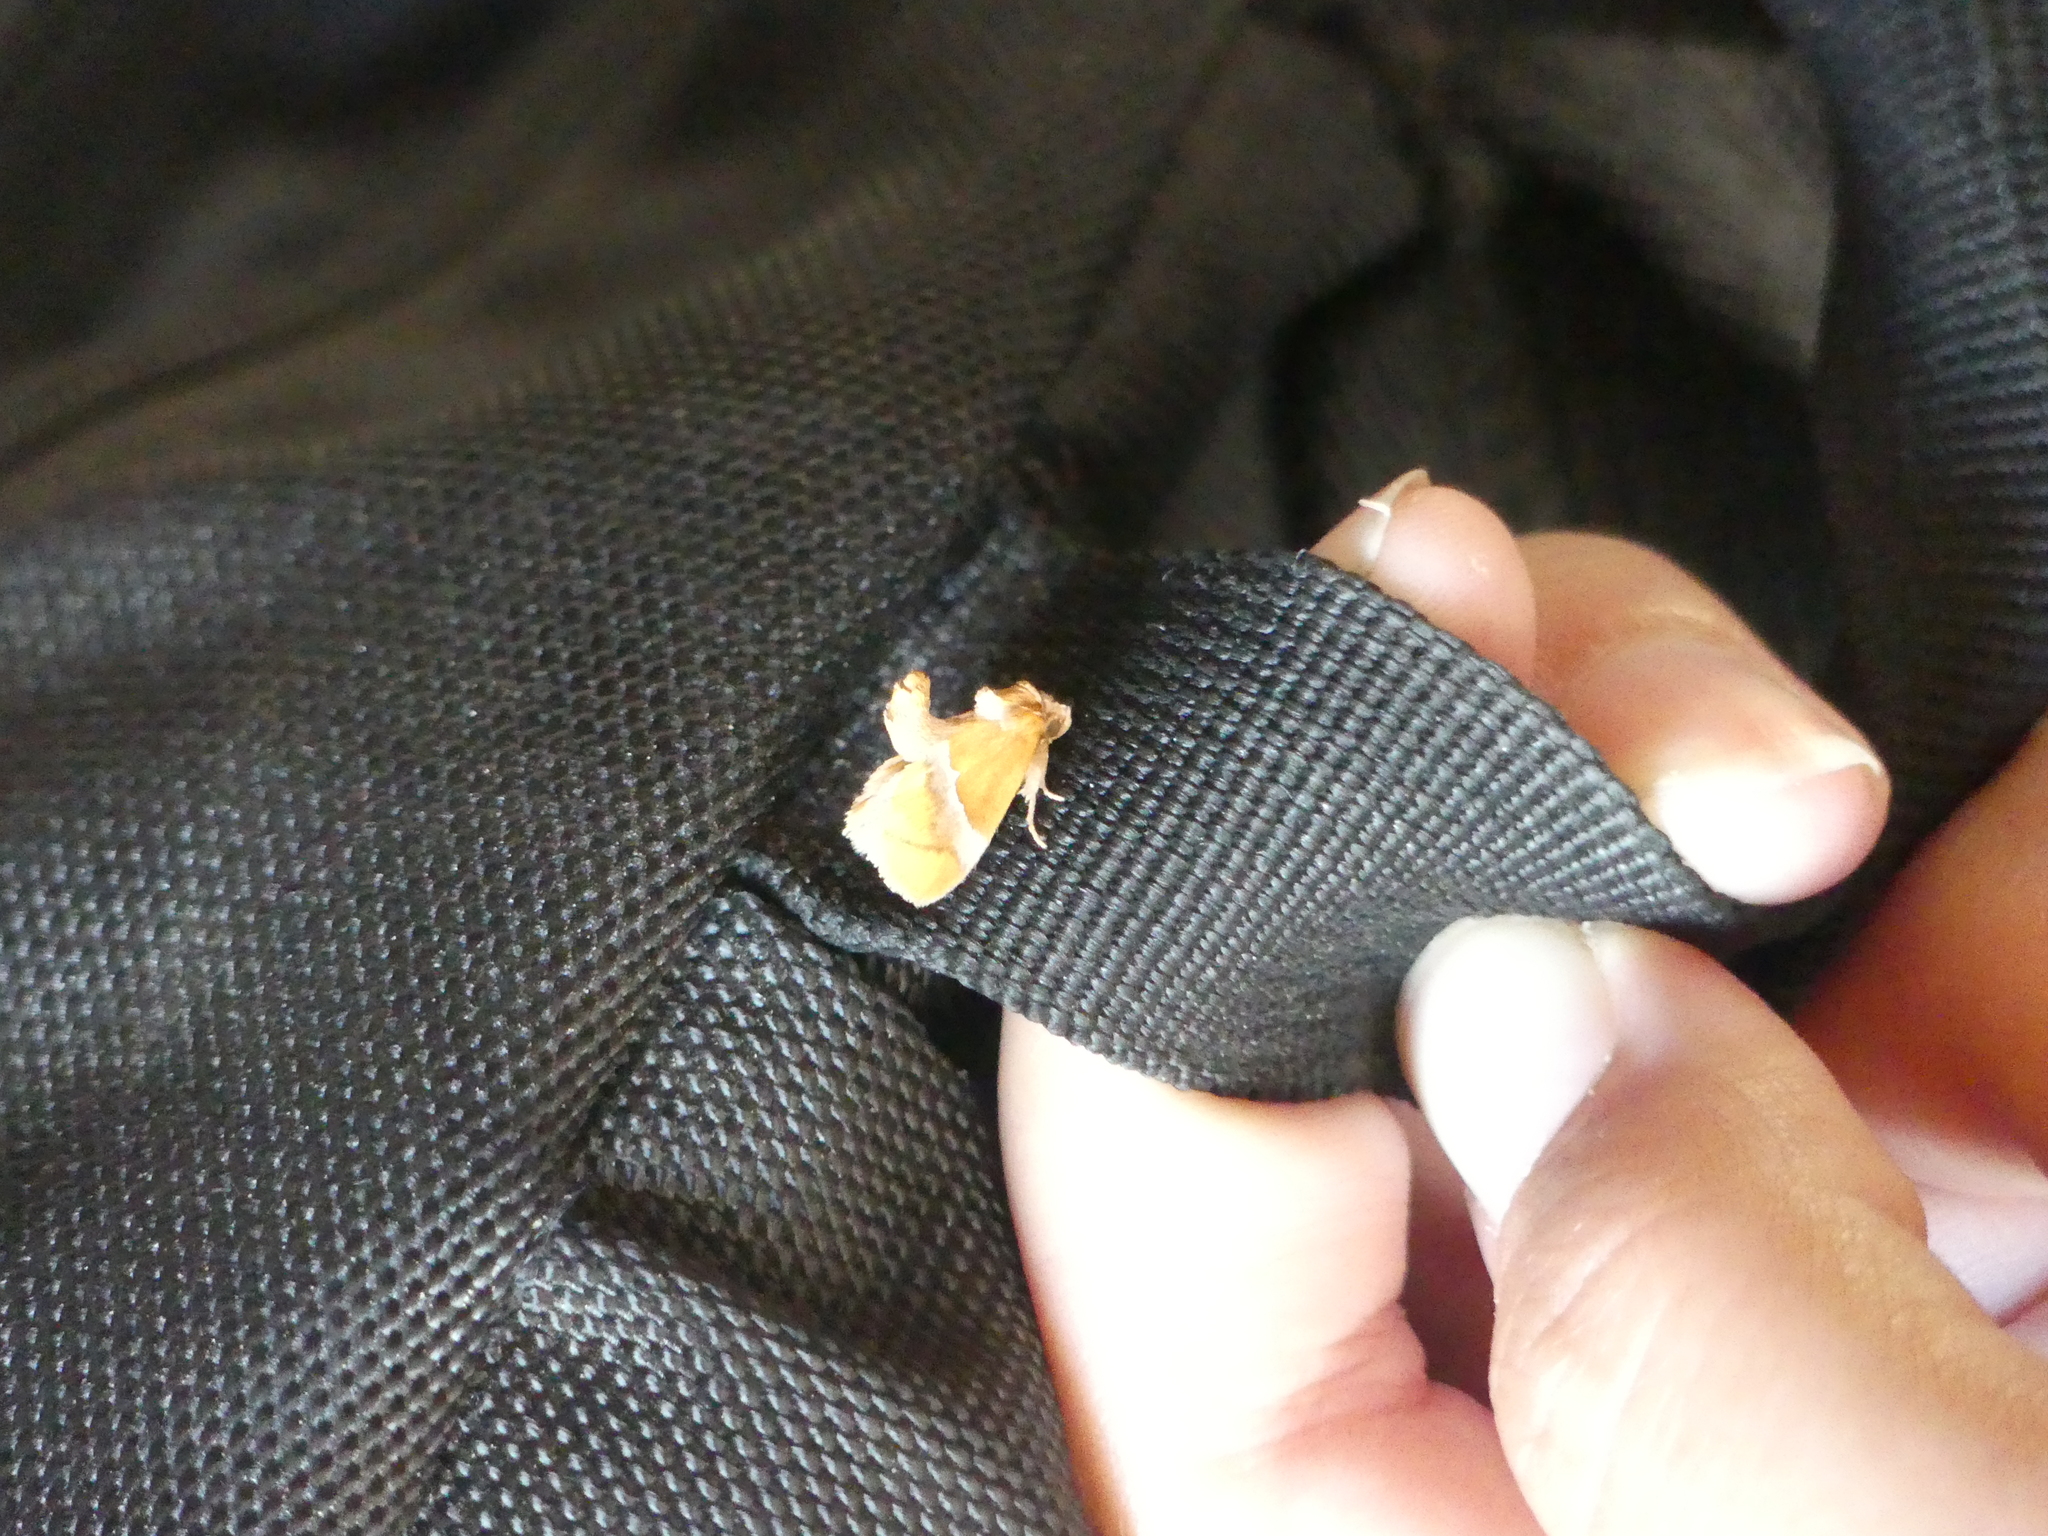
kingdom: Animalia
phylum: Arthropoda
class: Insecta
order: Lepidoptera
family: Limacodidae
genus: Lithacodes
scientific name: Lithacodes fasciola
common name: Yellow-shouldered slug moth
